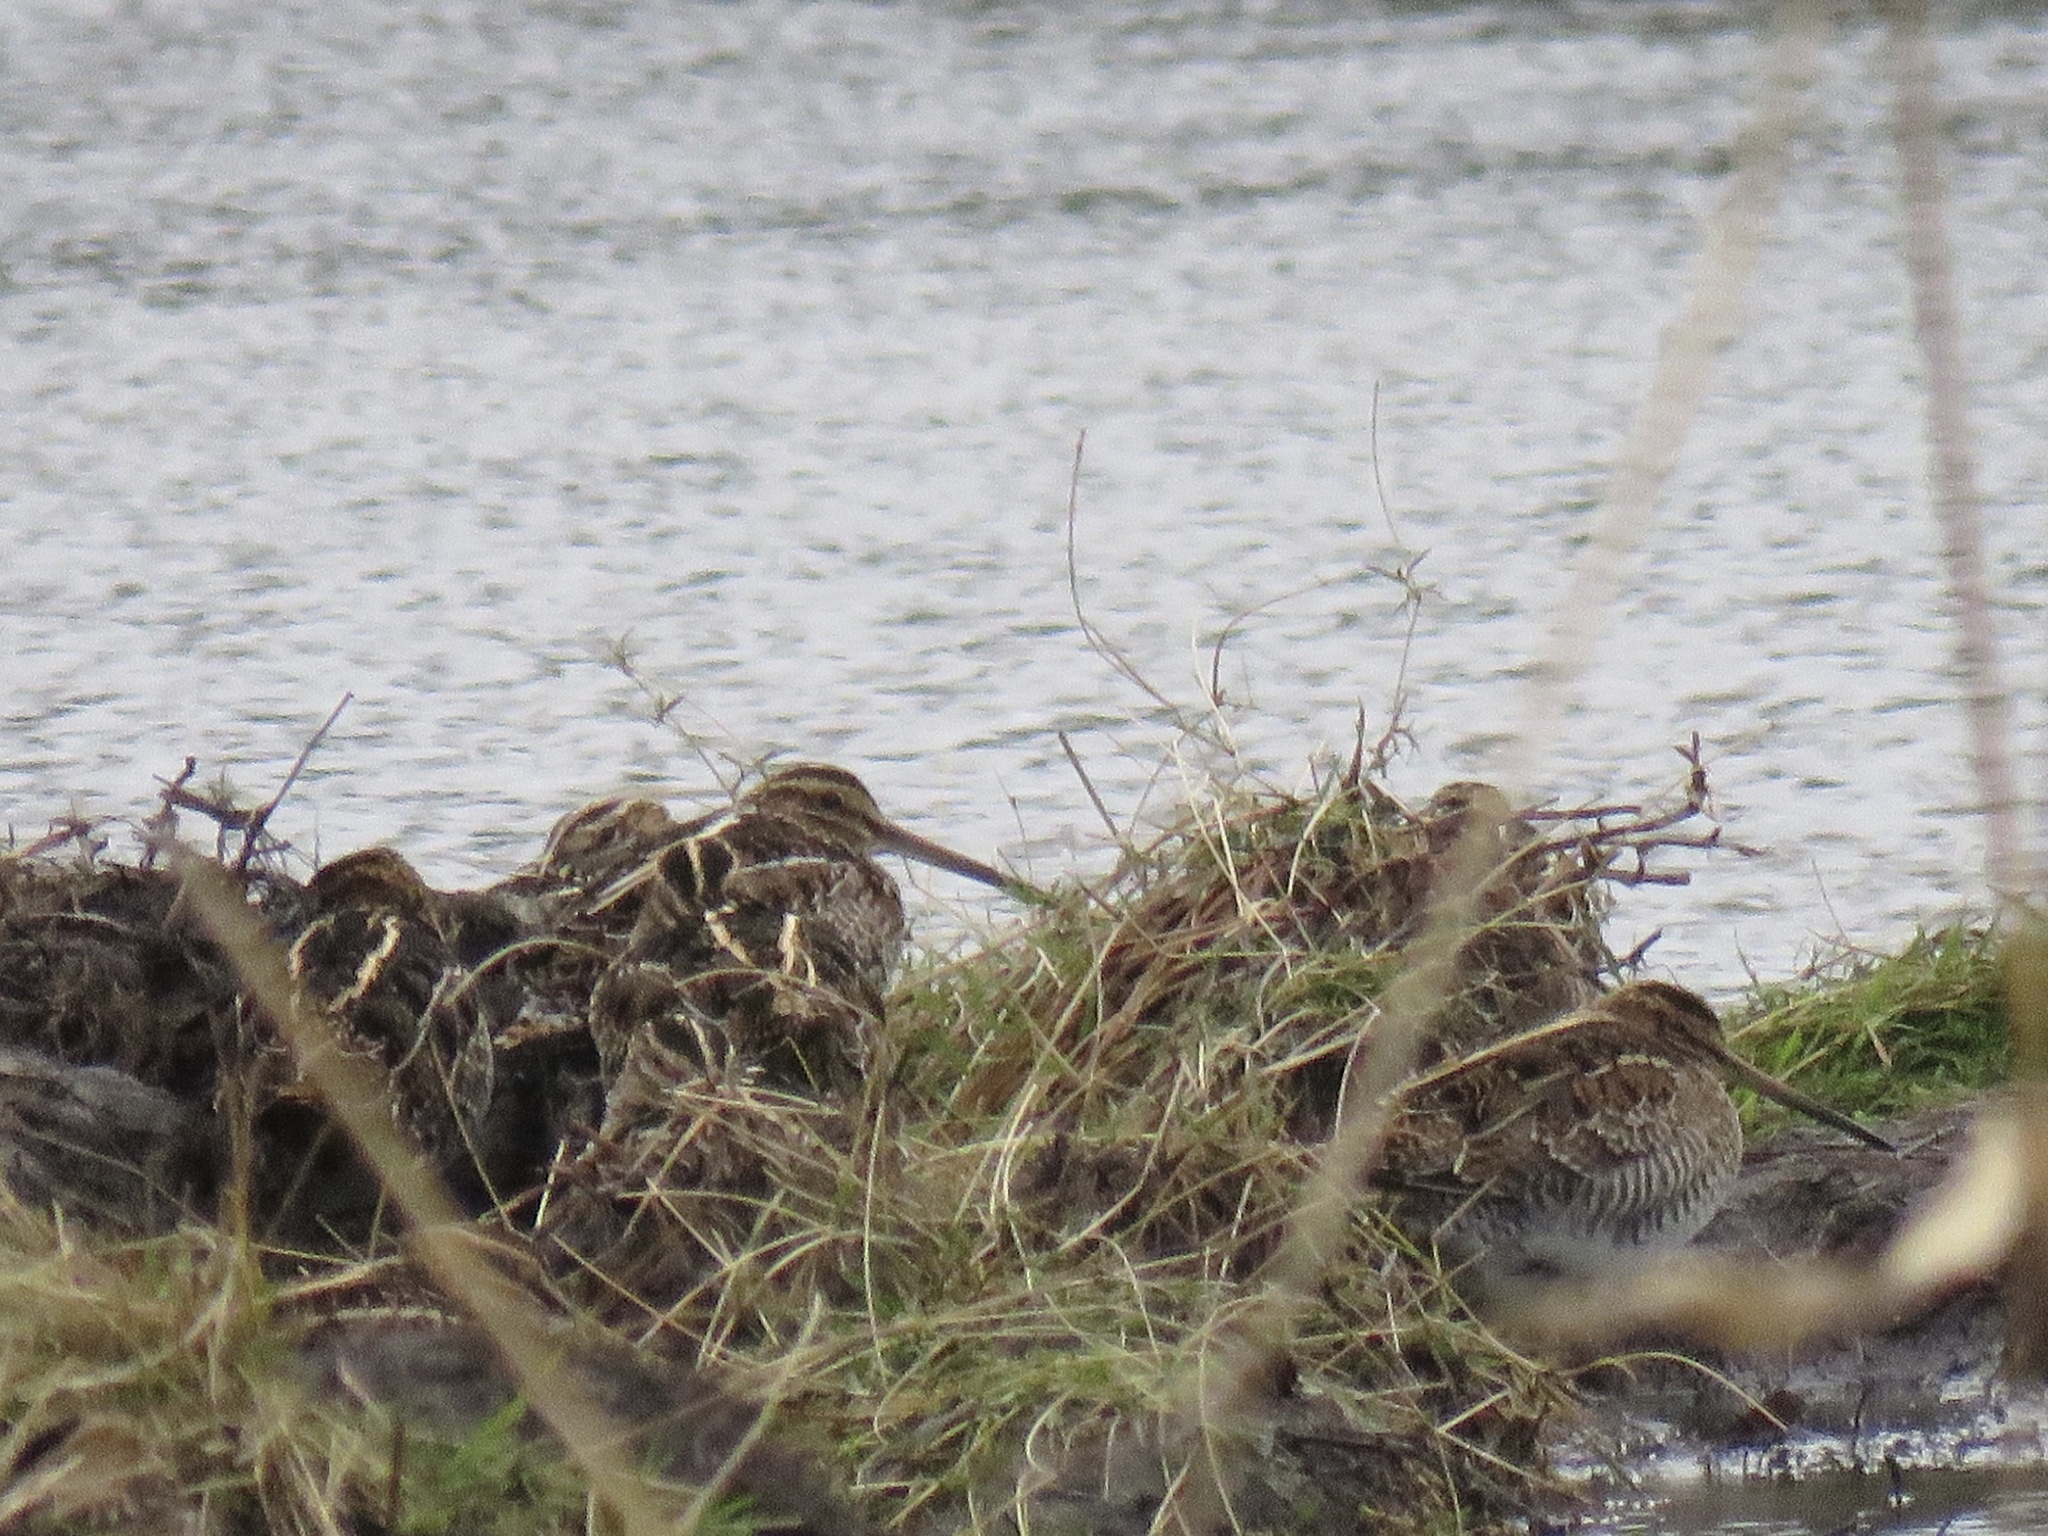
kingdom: Animalia
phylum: Chordata
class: Aves
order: Charadriiformes
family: Scolopacidae
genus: Gallinago
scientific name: Gallinago delicata
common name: Wilson's snipe
